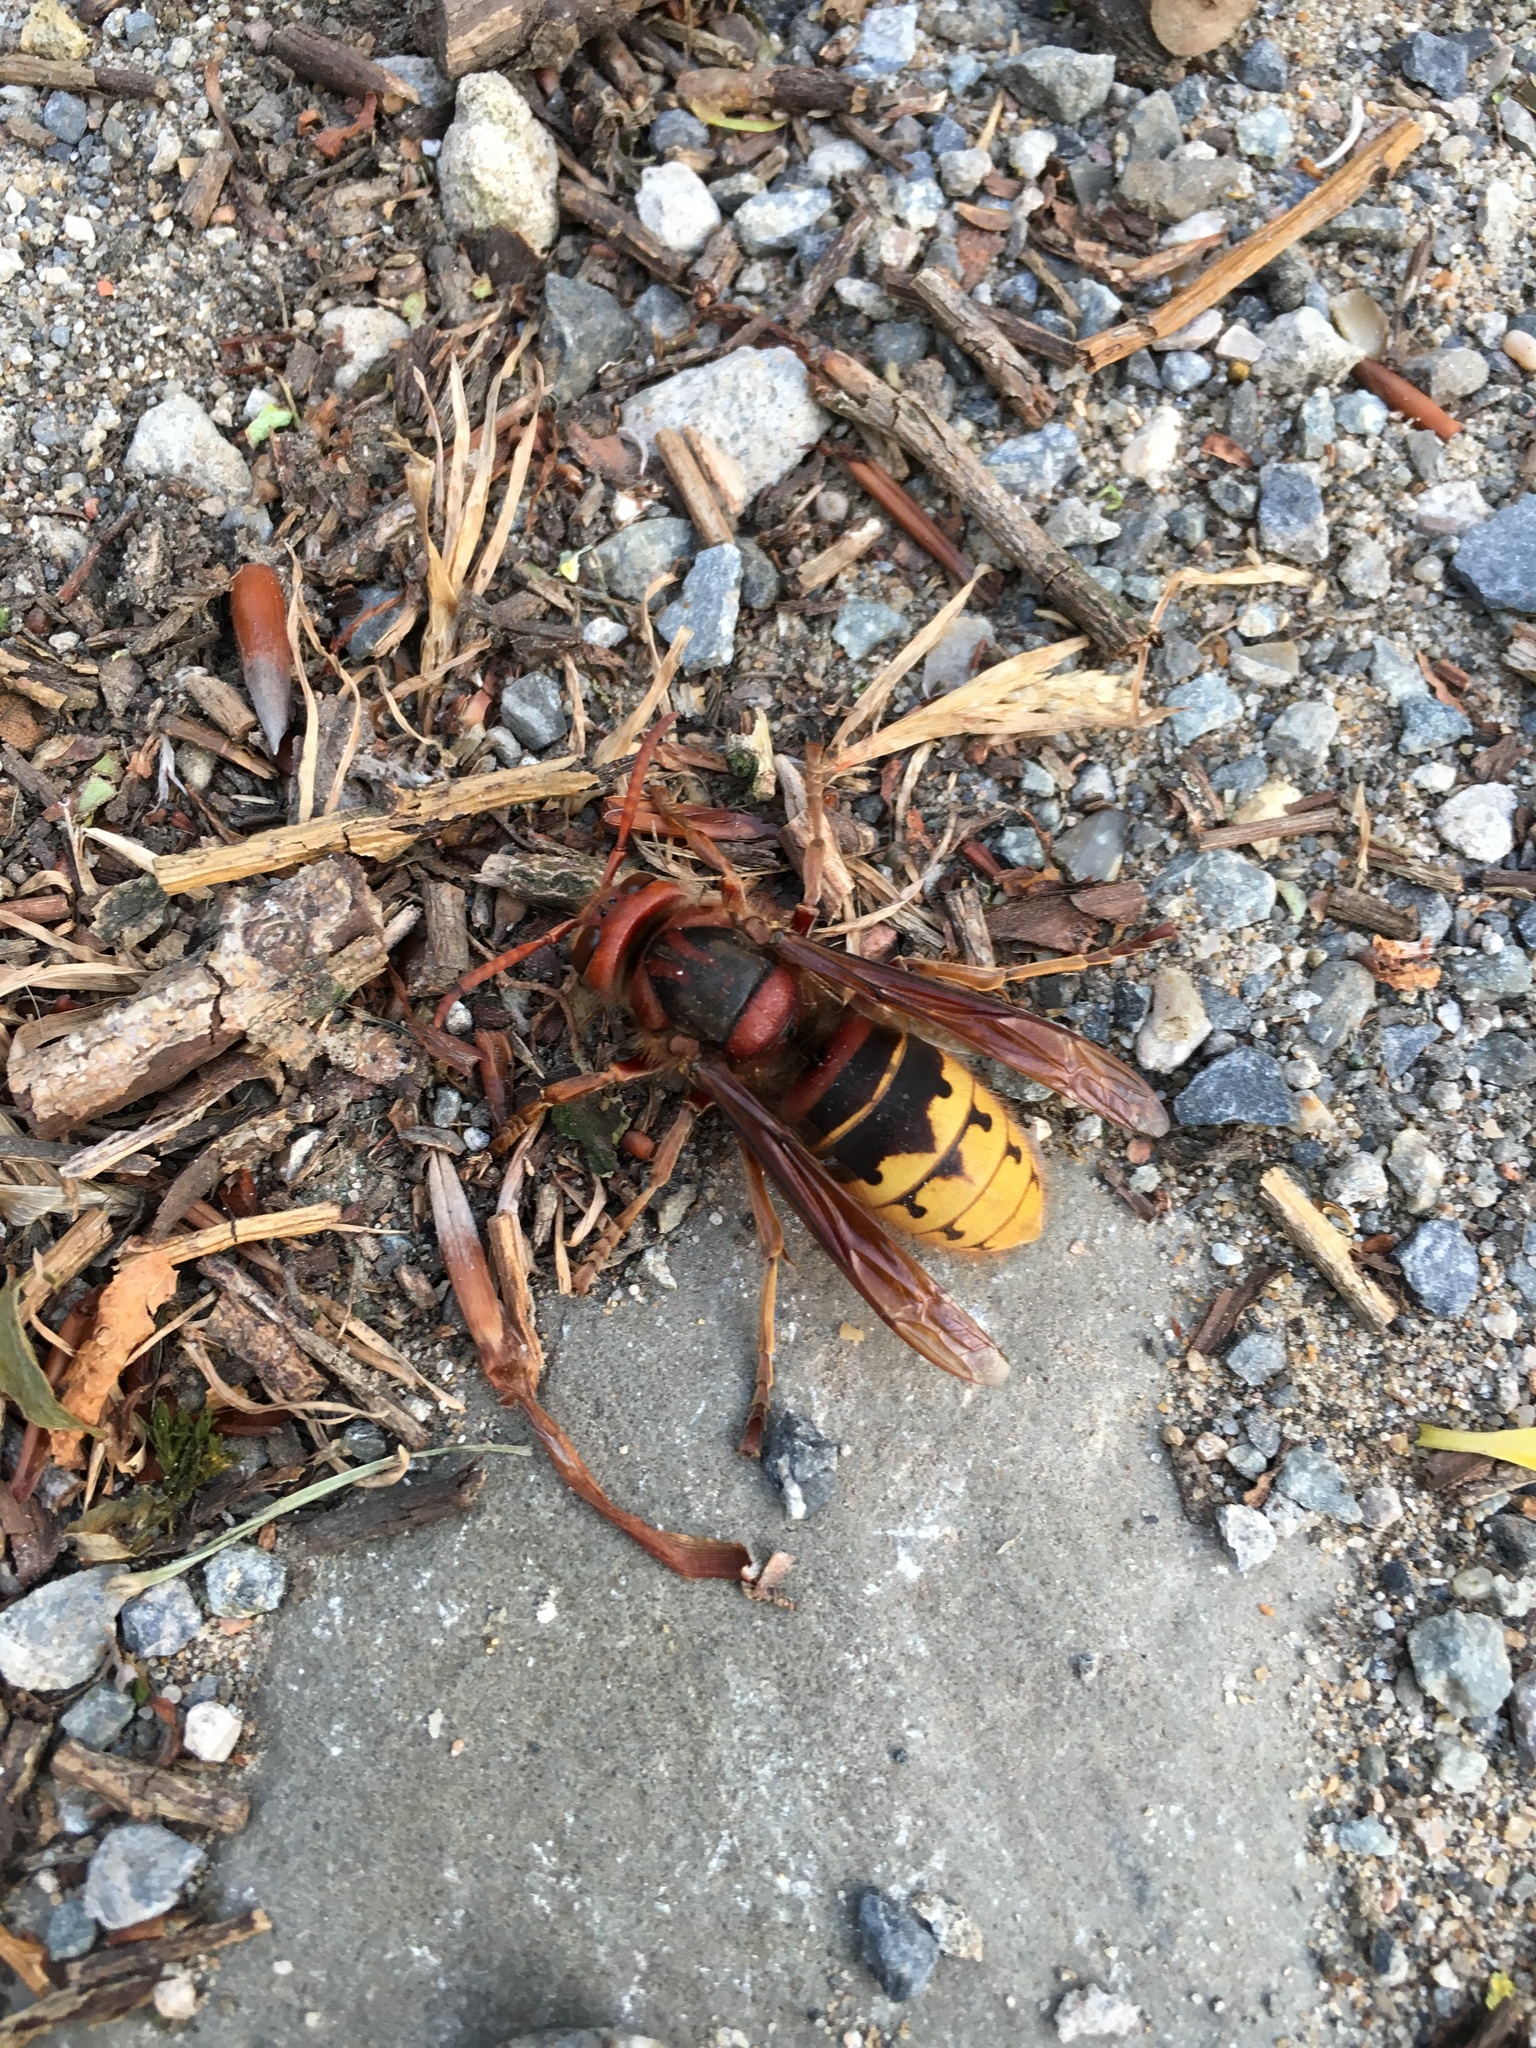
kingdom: Animalia
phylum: Arthropoda
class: Insecta
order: Hymenoptera
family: Vespidae
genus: Vespa
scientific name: Vespa crabro
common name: Hornet
